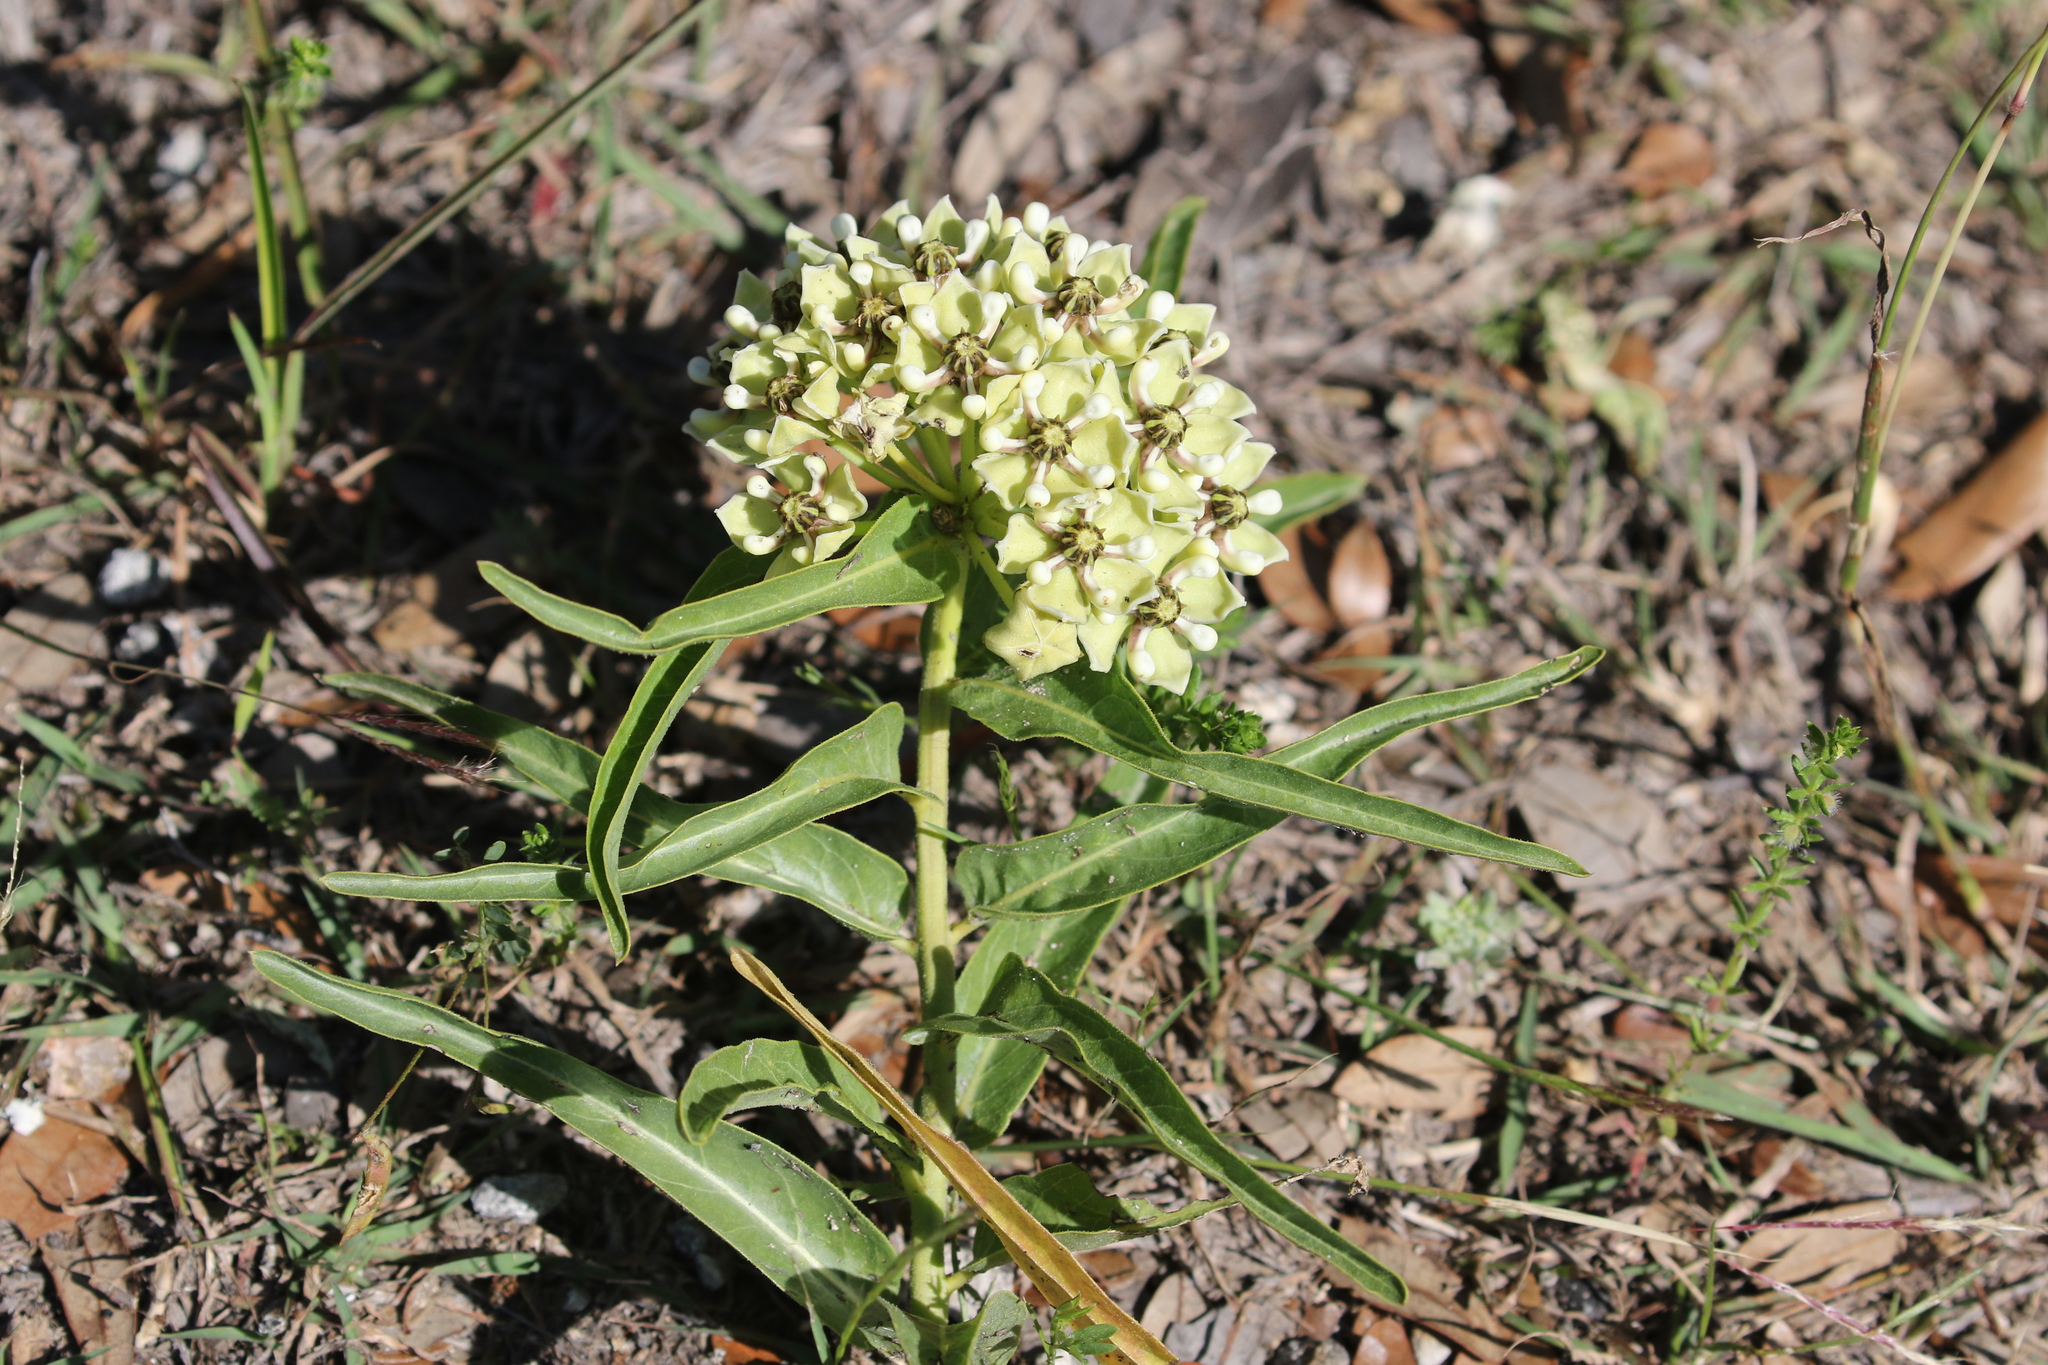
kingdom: Plantae
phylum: Tracheophyta
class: Magnoliopsida
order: Gentianales
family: Apocynaceae
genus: Asclepias
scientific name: Asclepias asperula
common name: Antelope horns
